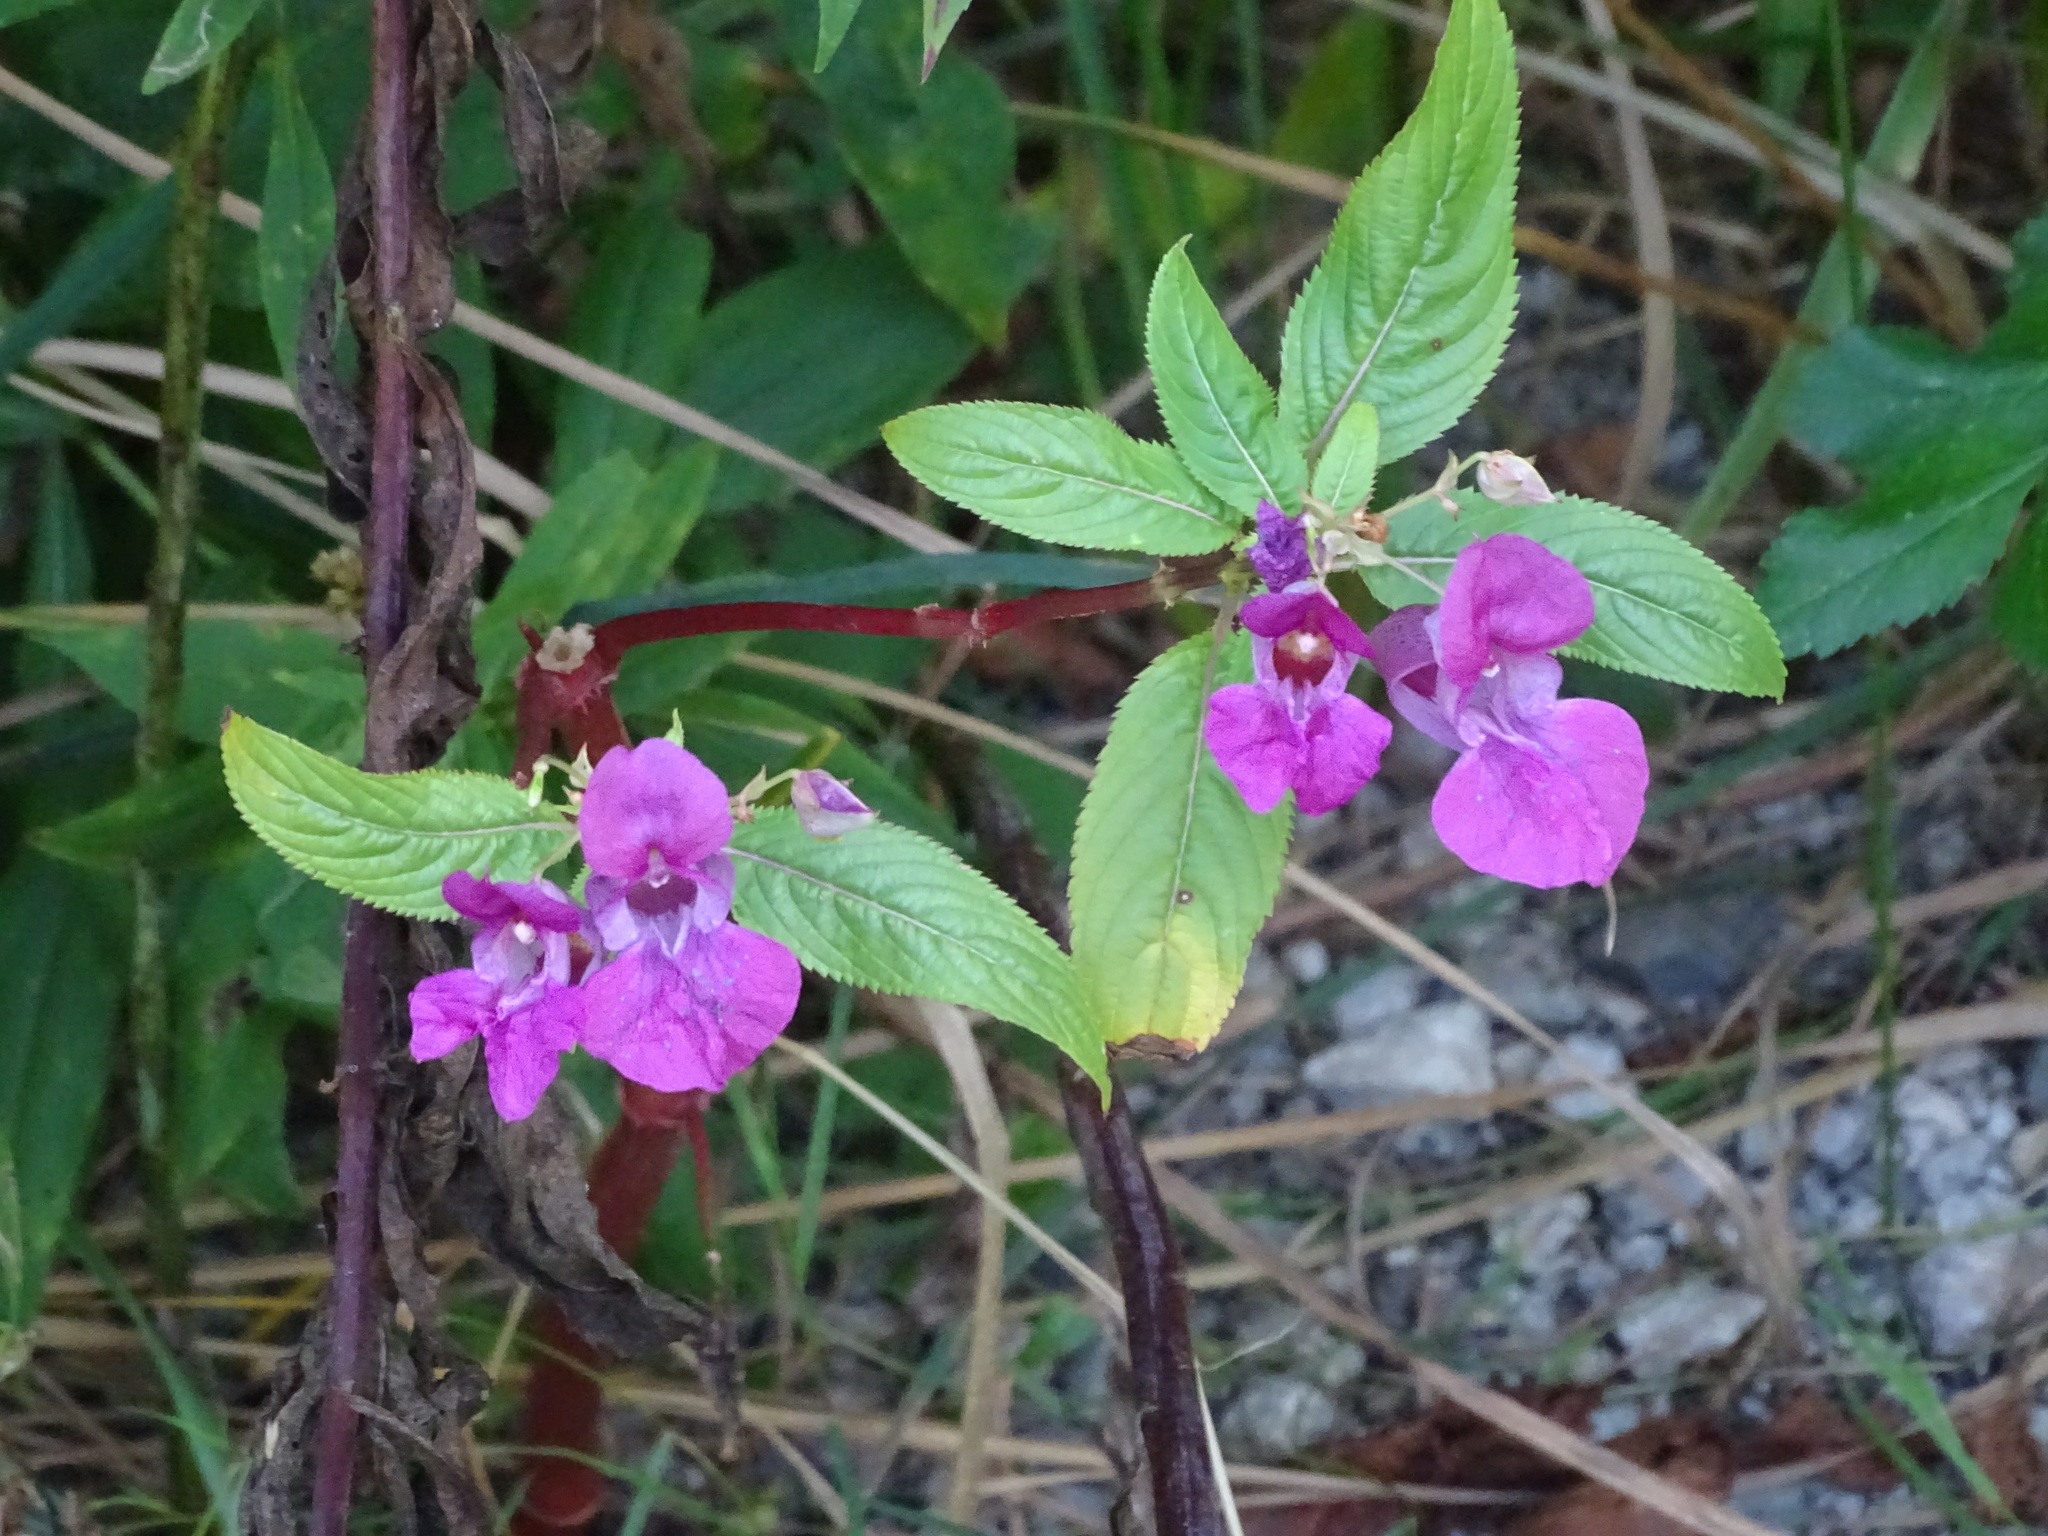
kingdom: Plantae
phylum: Tracheophyta
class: Magnoliopsida
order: Ericales
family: Balsaminaceae
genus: Impatiens
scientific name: Impatiens glandulifera
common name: Himalayan balsam
